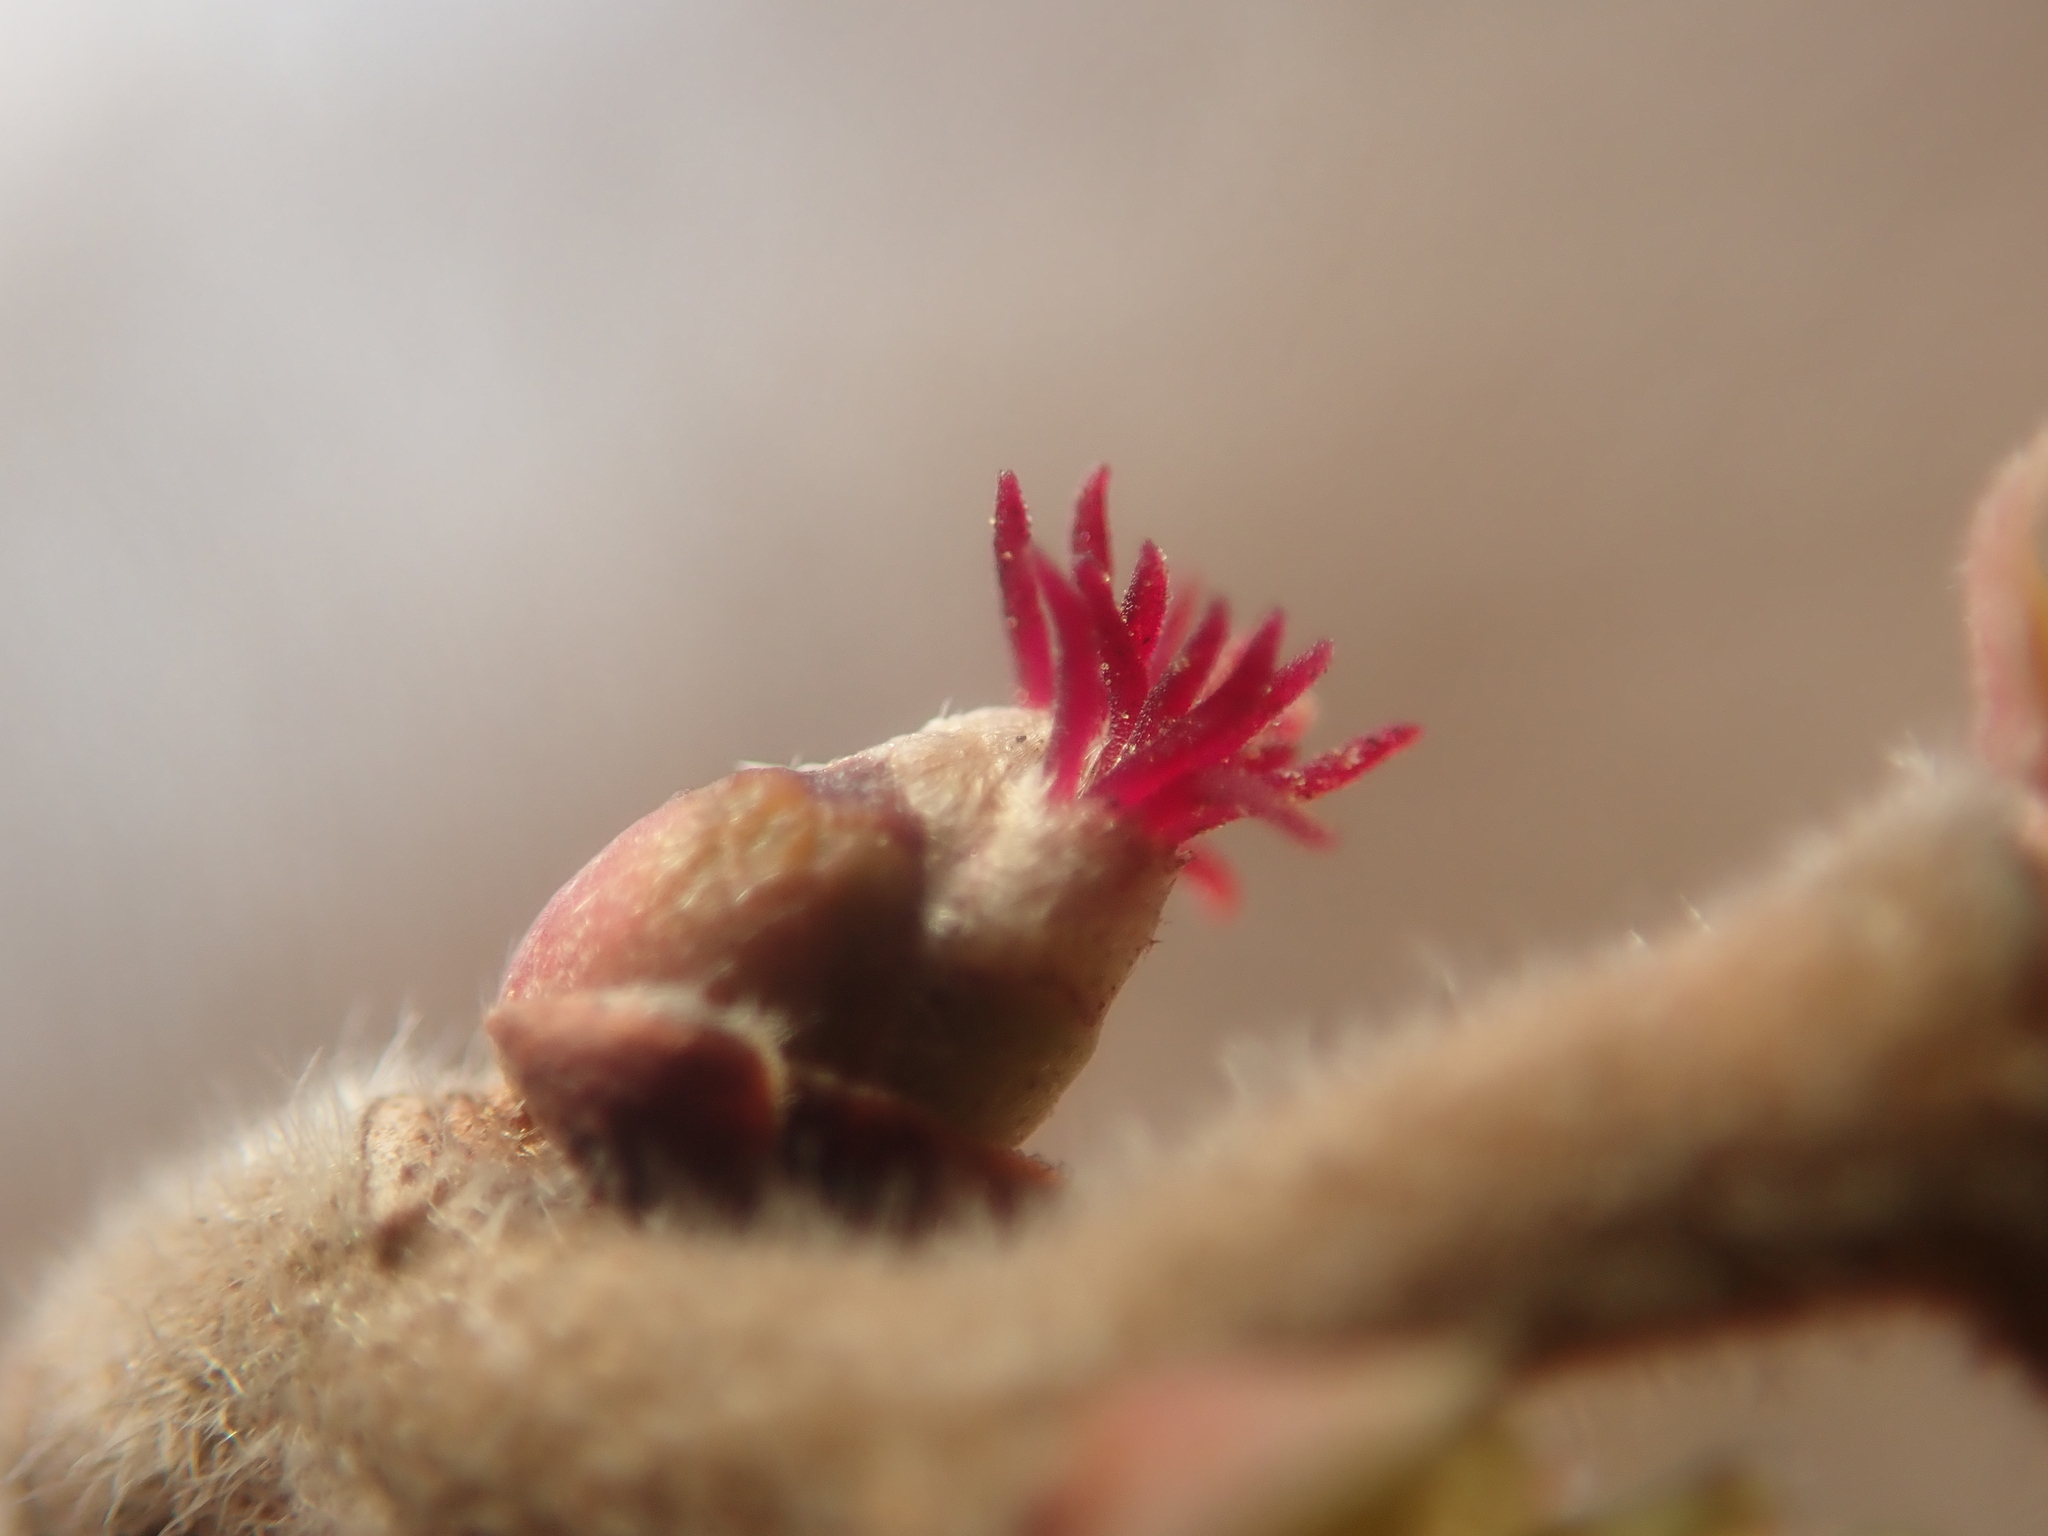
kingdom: Plantae
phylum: Tracheophyta
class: Magnoliopsida
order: Fagales
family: Betulaceae
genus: Corylus
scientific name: Corylus avellana
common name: European hazel
